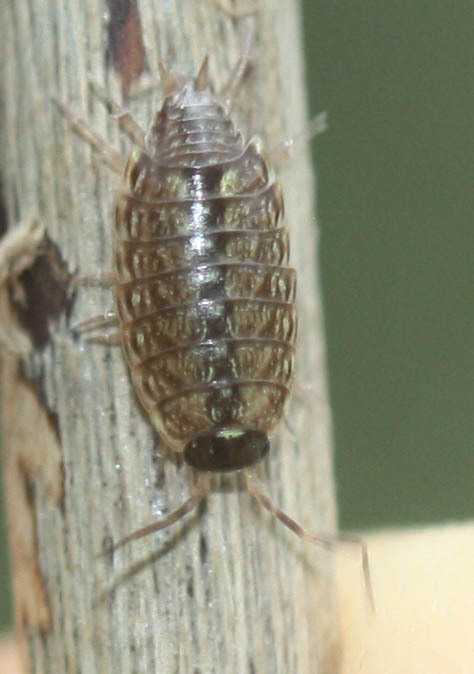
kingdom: Animalia
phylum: Arthropoda
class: Malacostraca
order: Isopoda
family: Philosciidae
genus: Philoscia
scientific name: Philoscia muscorum
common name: Common striped woodlouse
